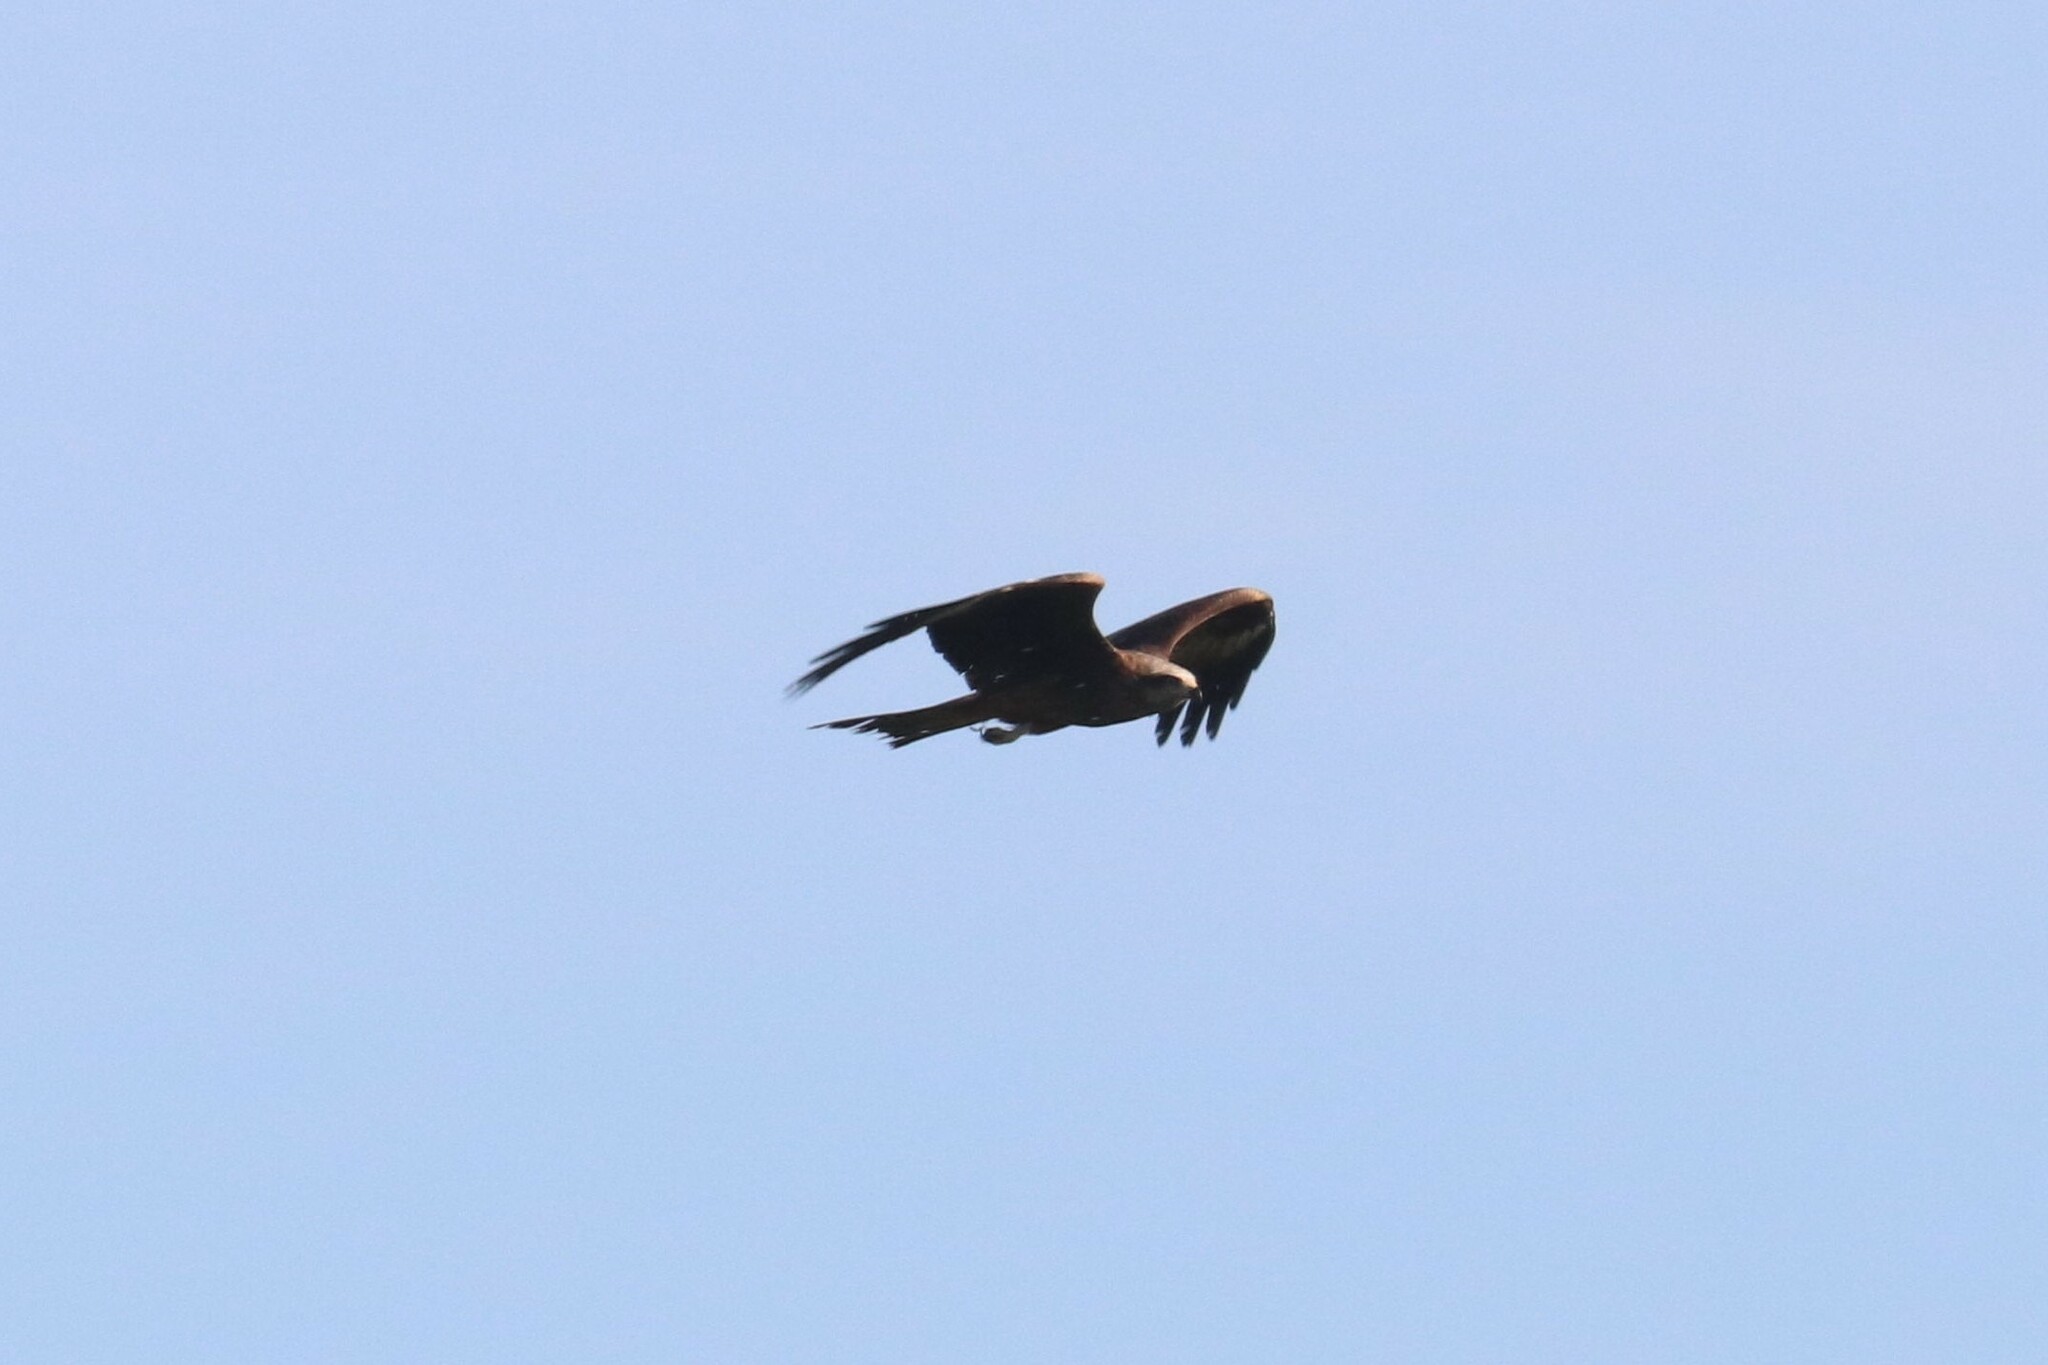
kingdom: Animalia
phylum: Chordata
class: Aves
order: Accipitriformes
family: Accipitridae
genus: Milvus
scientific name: Milvus migrans
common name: Black kite
